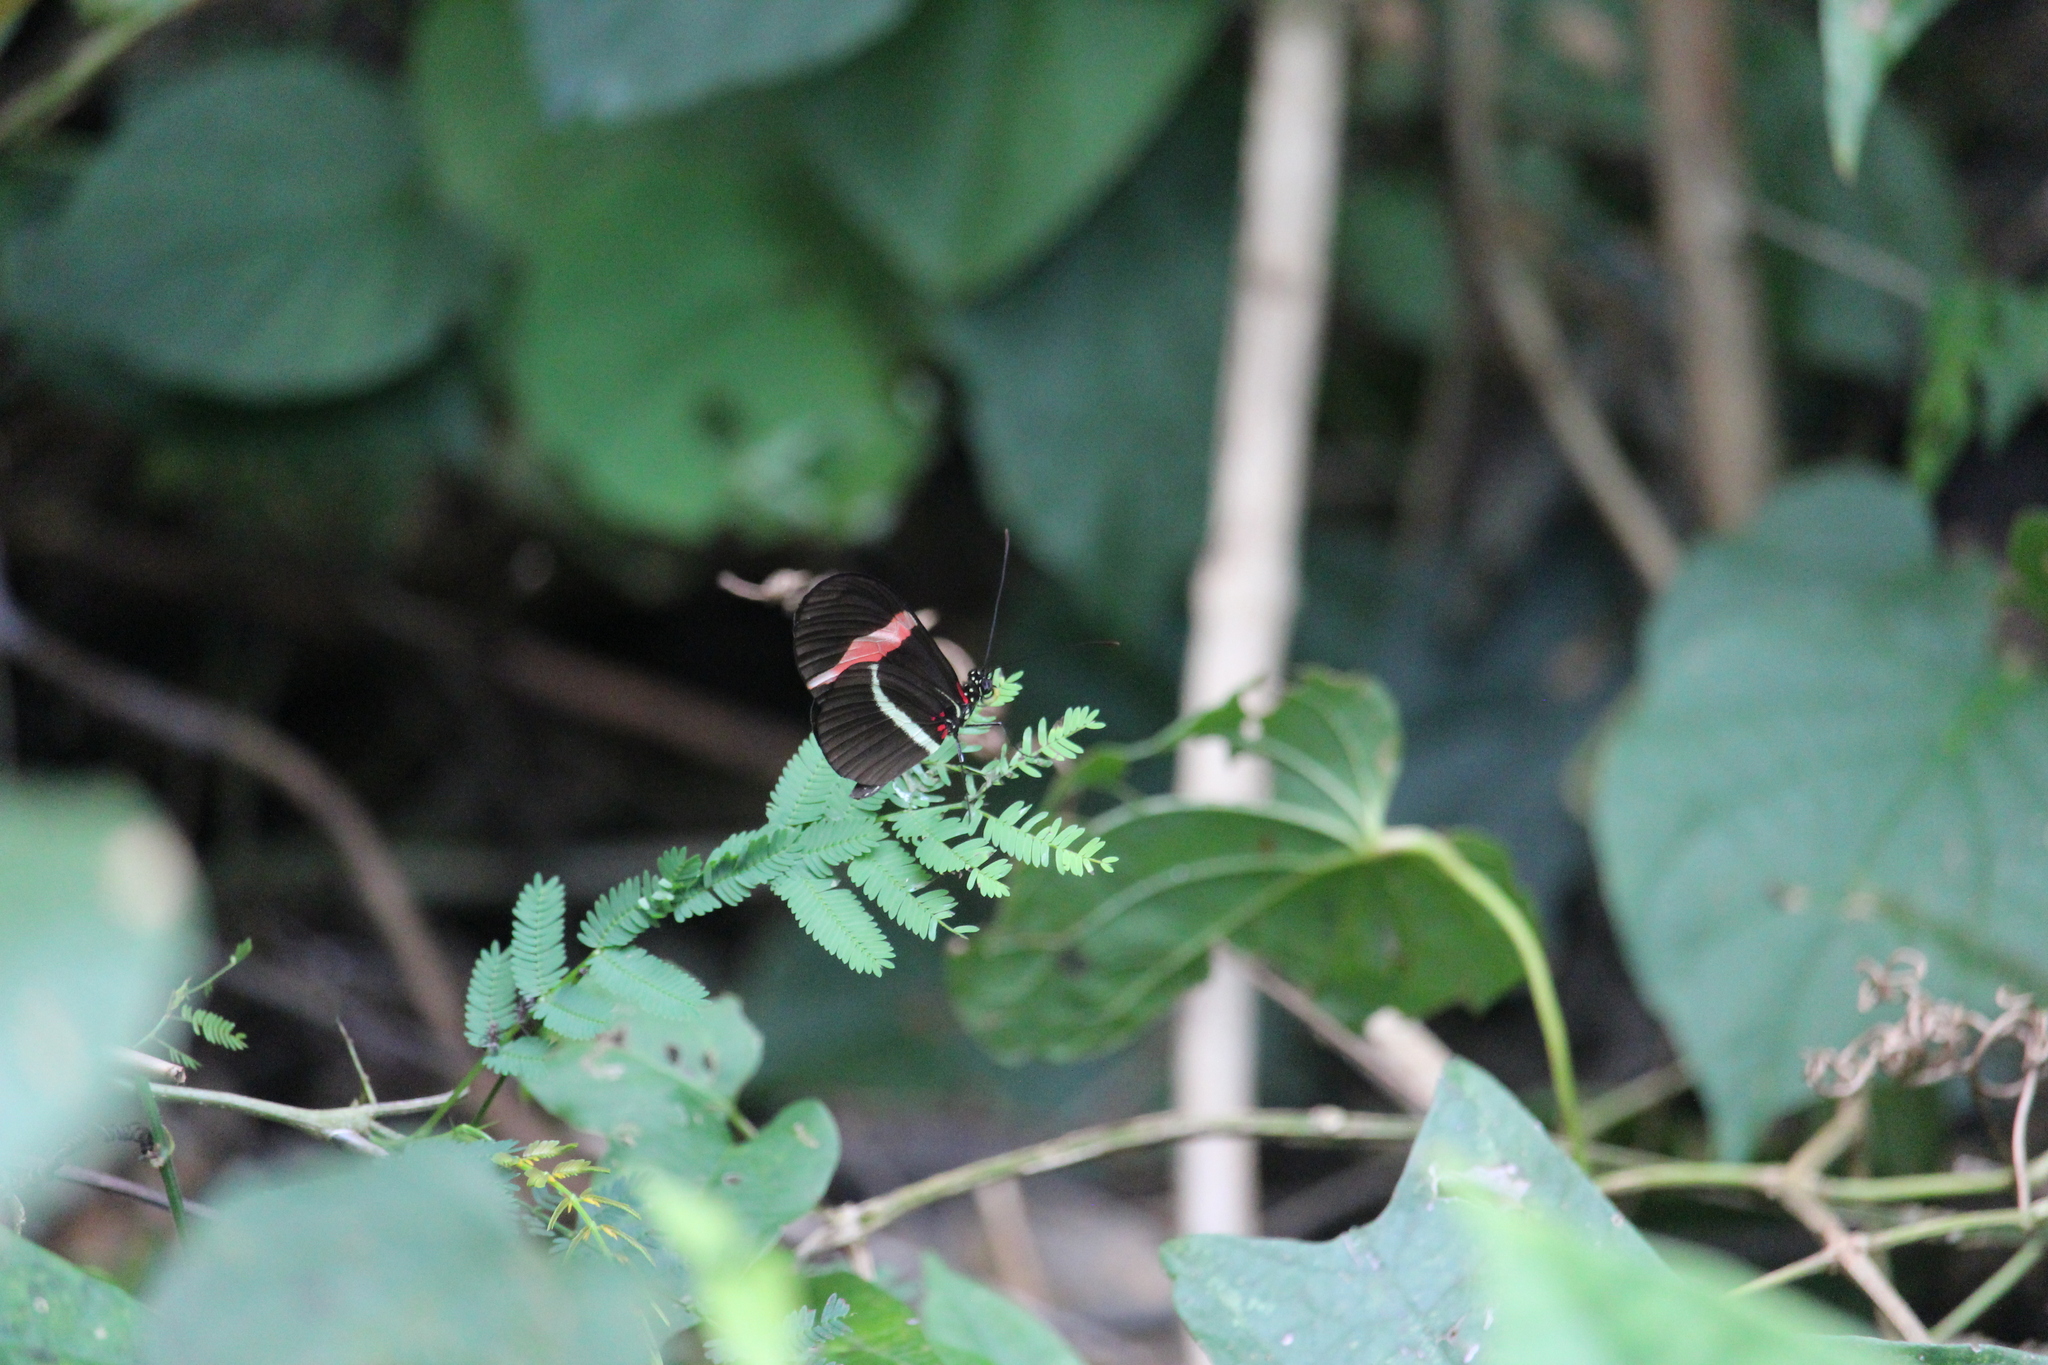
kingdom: Animalia
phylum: Arthropoda
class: Insecta
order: Lepidoptera
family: Nymphalidae
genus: Tirumala
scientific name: Tirumala petiverana
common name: Blue monarch
